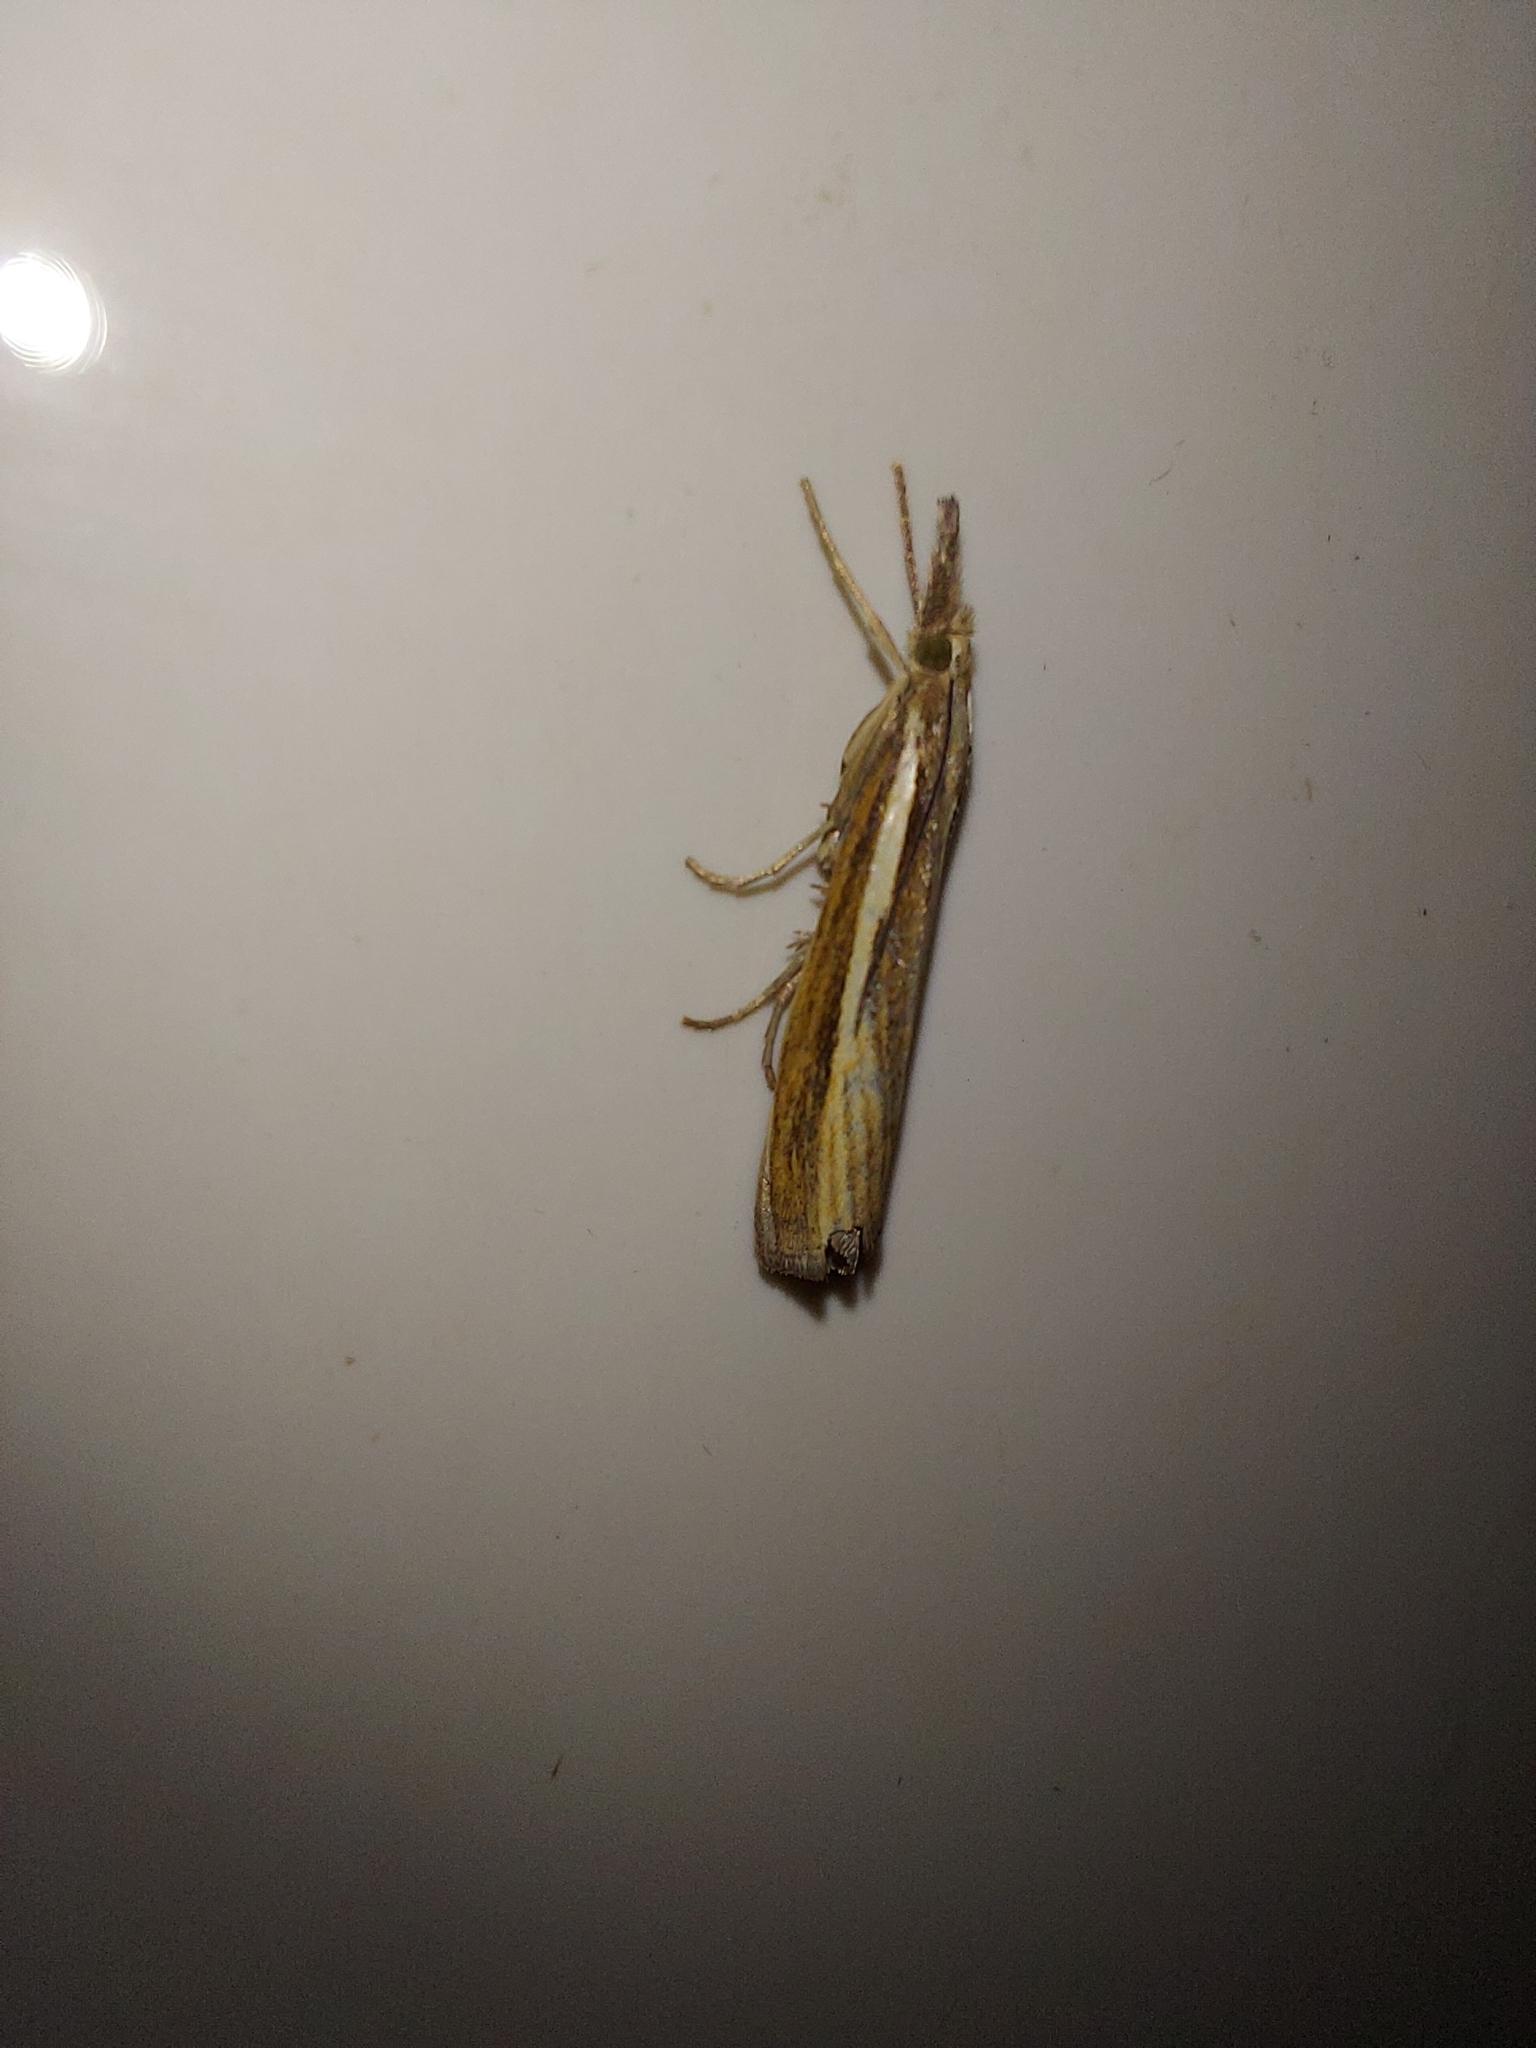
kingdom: Animalia
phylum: Arthropoda
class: Insecta
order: Lepidoptera
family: Crambidae
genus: Agriphila
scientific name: Agriphila tristellus
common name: Common grass-veneer
